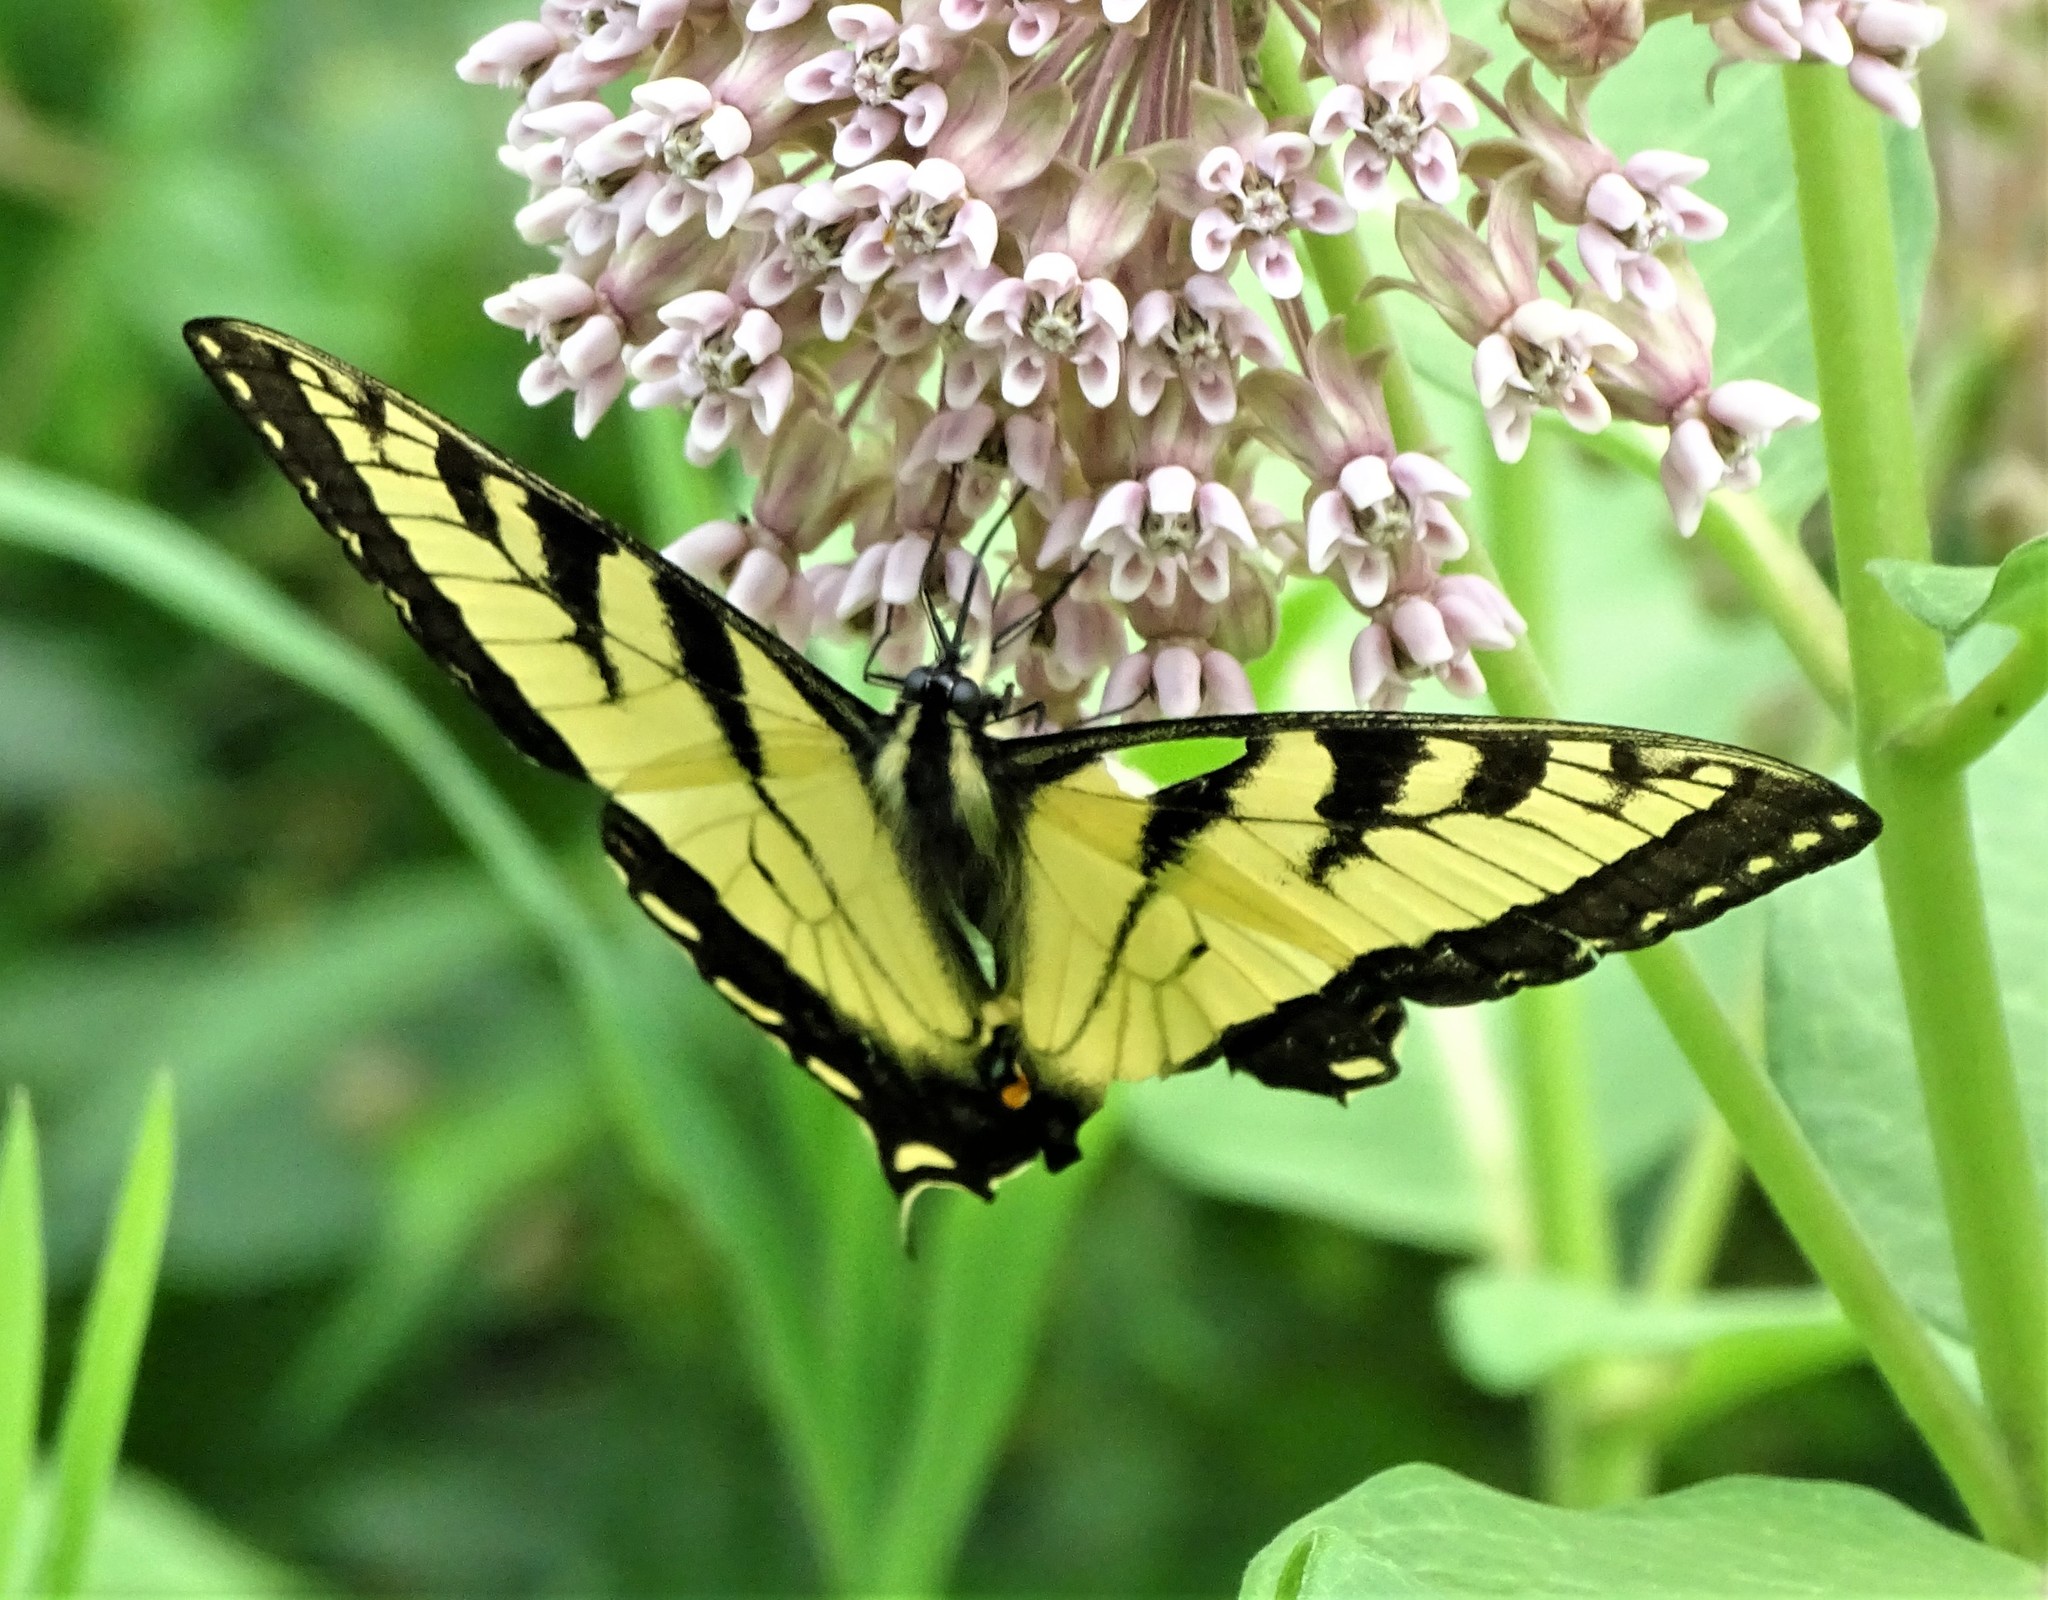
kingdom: Animalia
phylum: Arthropoda
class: Insecta
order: Lepidoptera
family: Papilionidae
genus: Papilio
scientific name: Papilio canadensis
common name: Canadian tiger swallowtail
